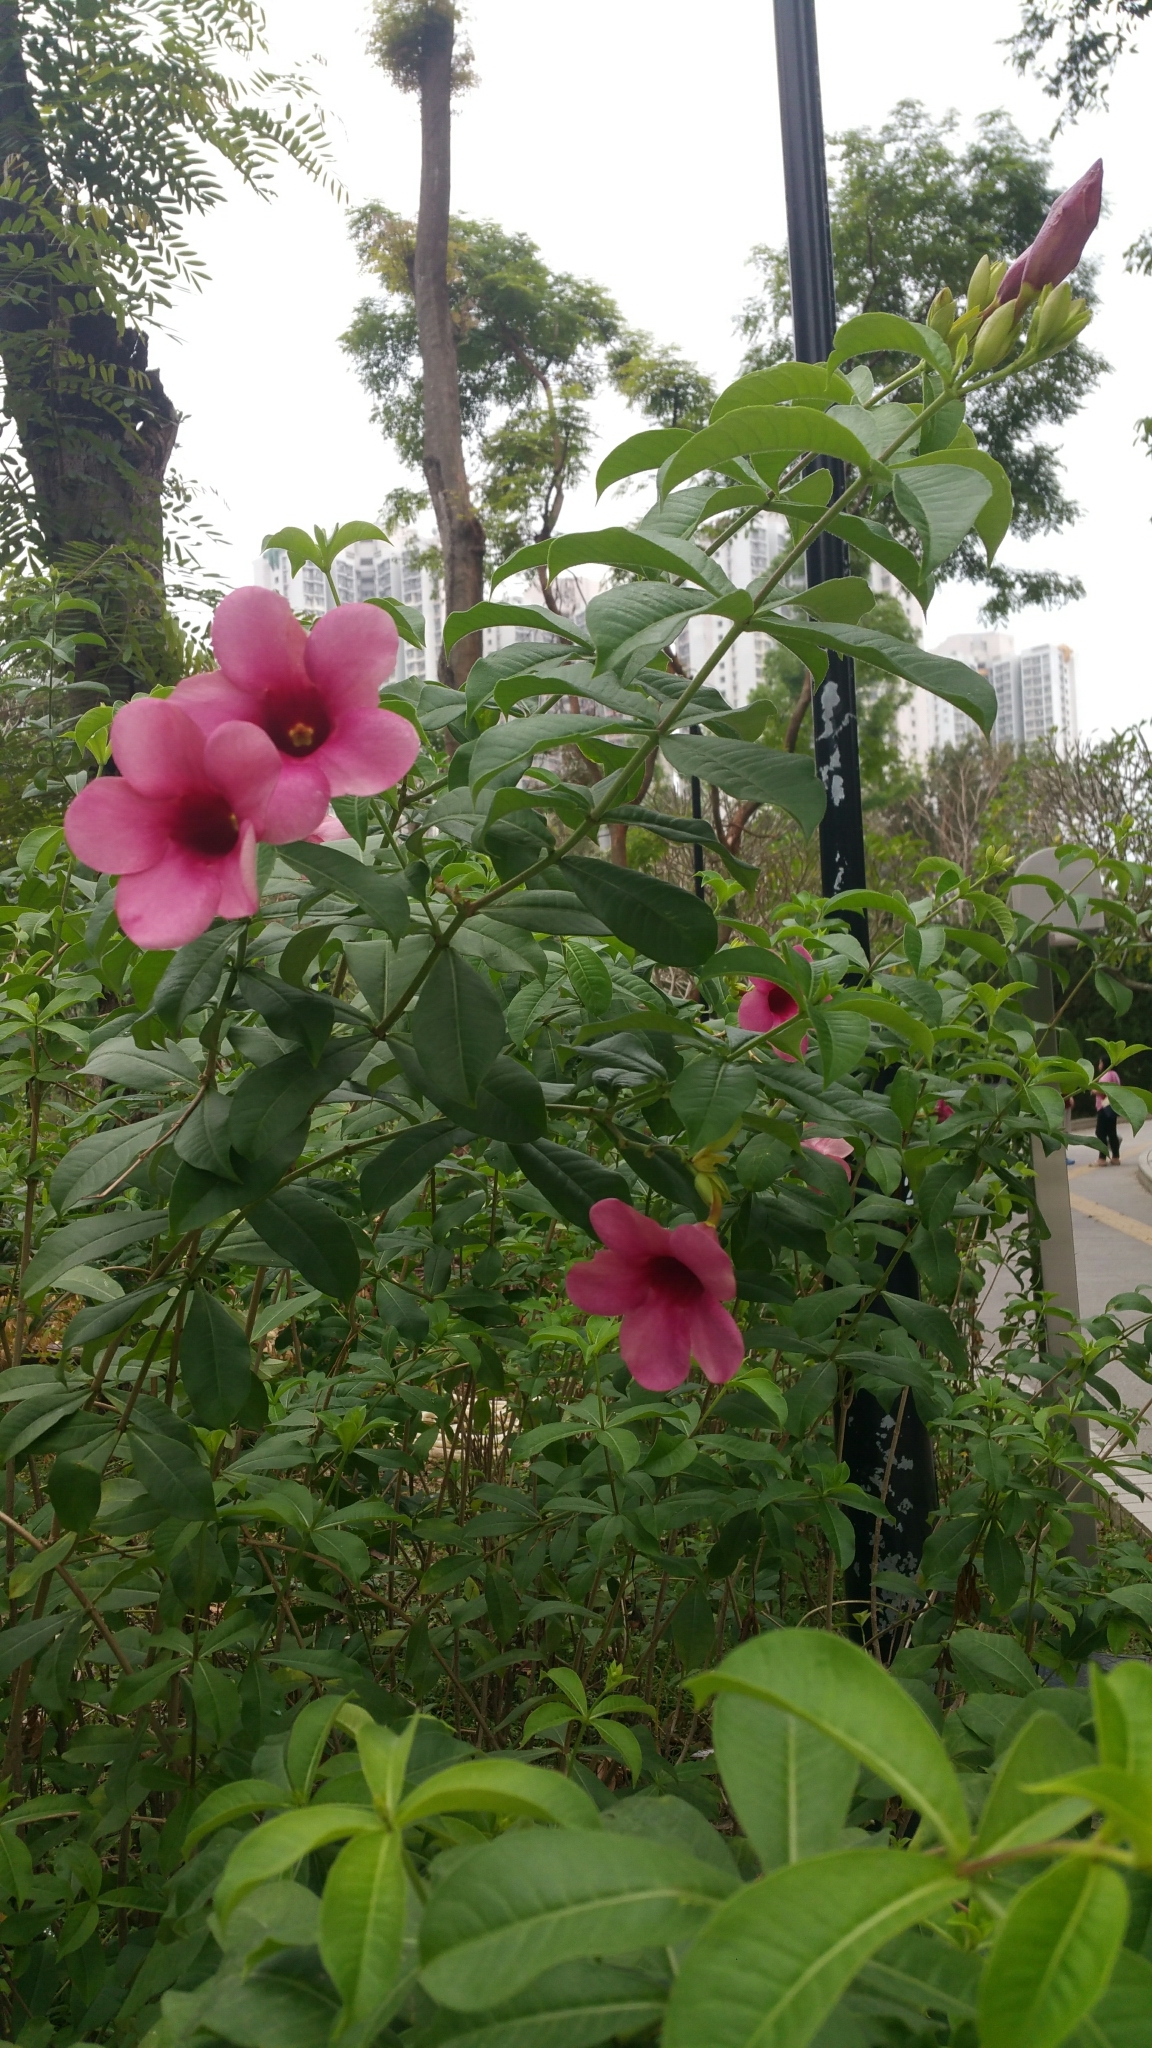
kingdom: Plantae
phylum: Tracheophyta
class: Magnoliopsida
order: Gentianales
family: Apocynaceae
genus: Allamanda
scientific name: Allamanda blanchetii
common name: Purple allamanda
